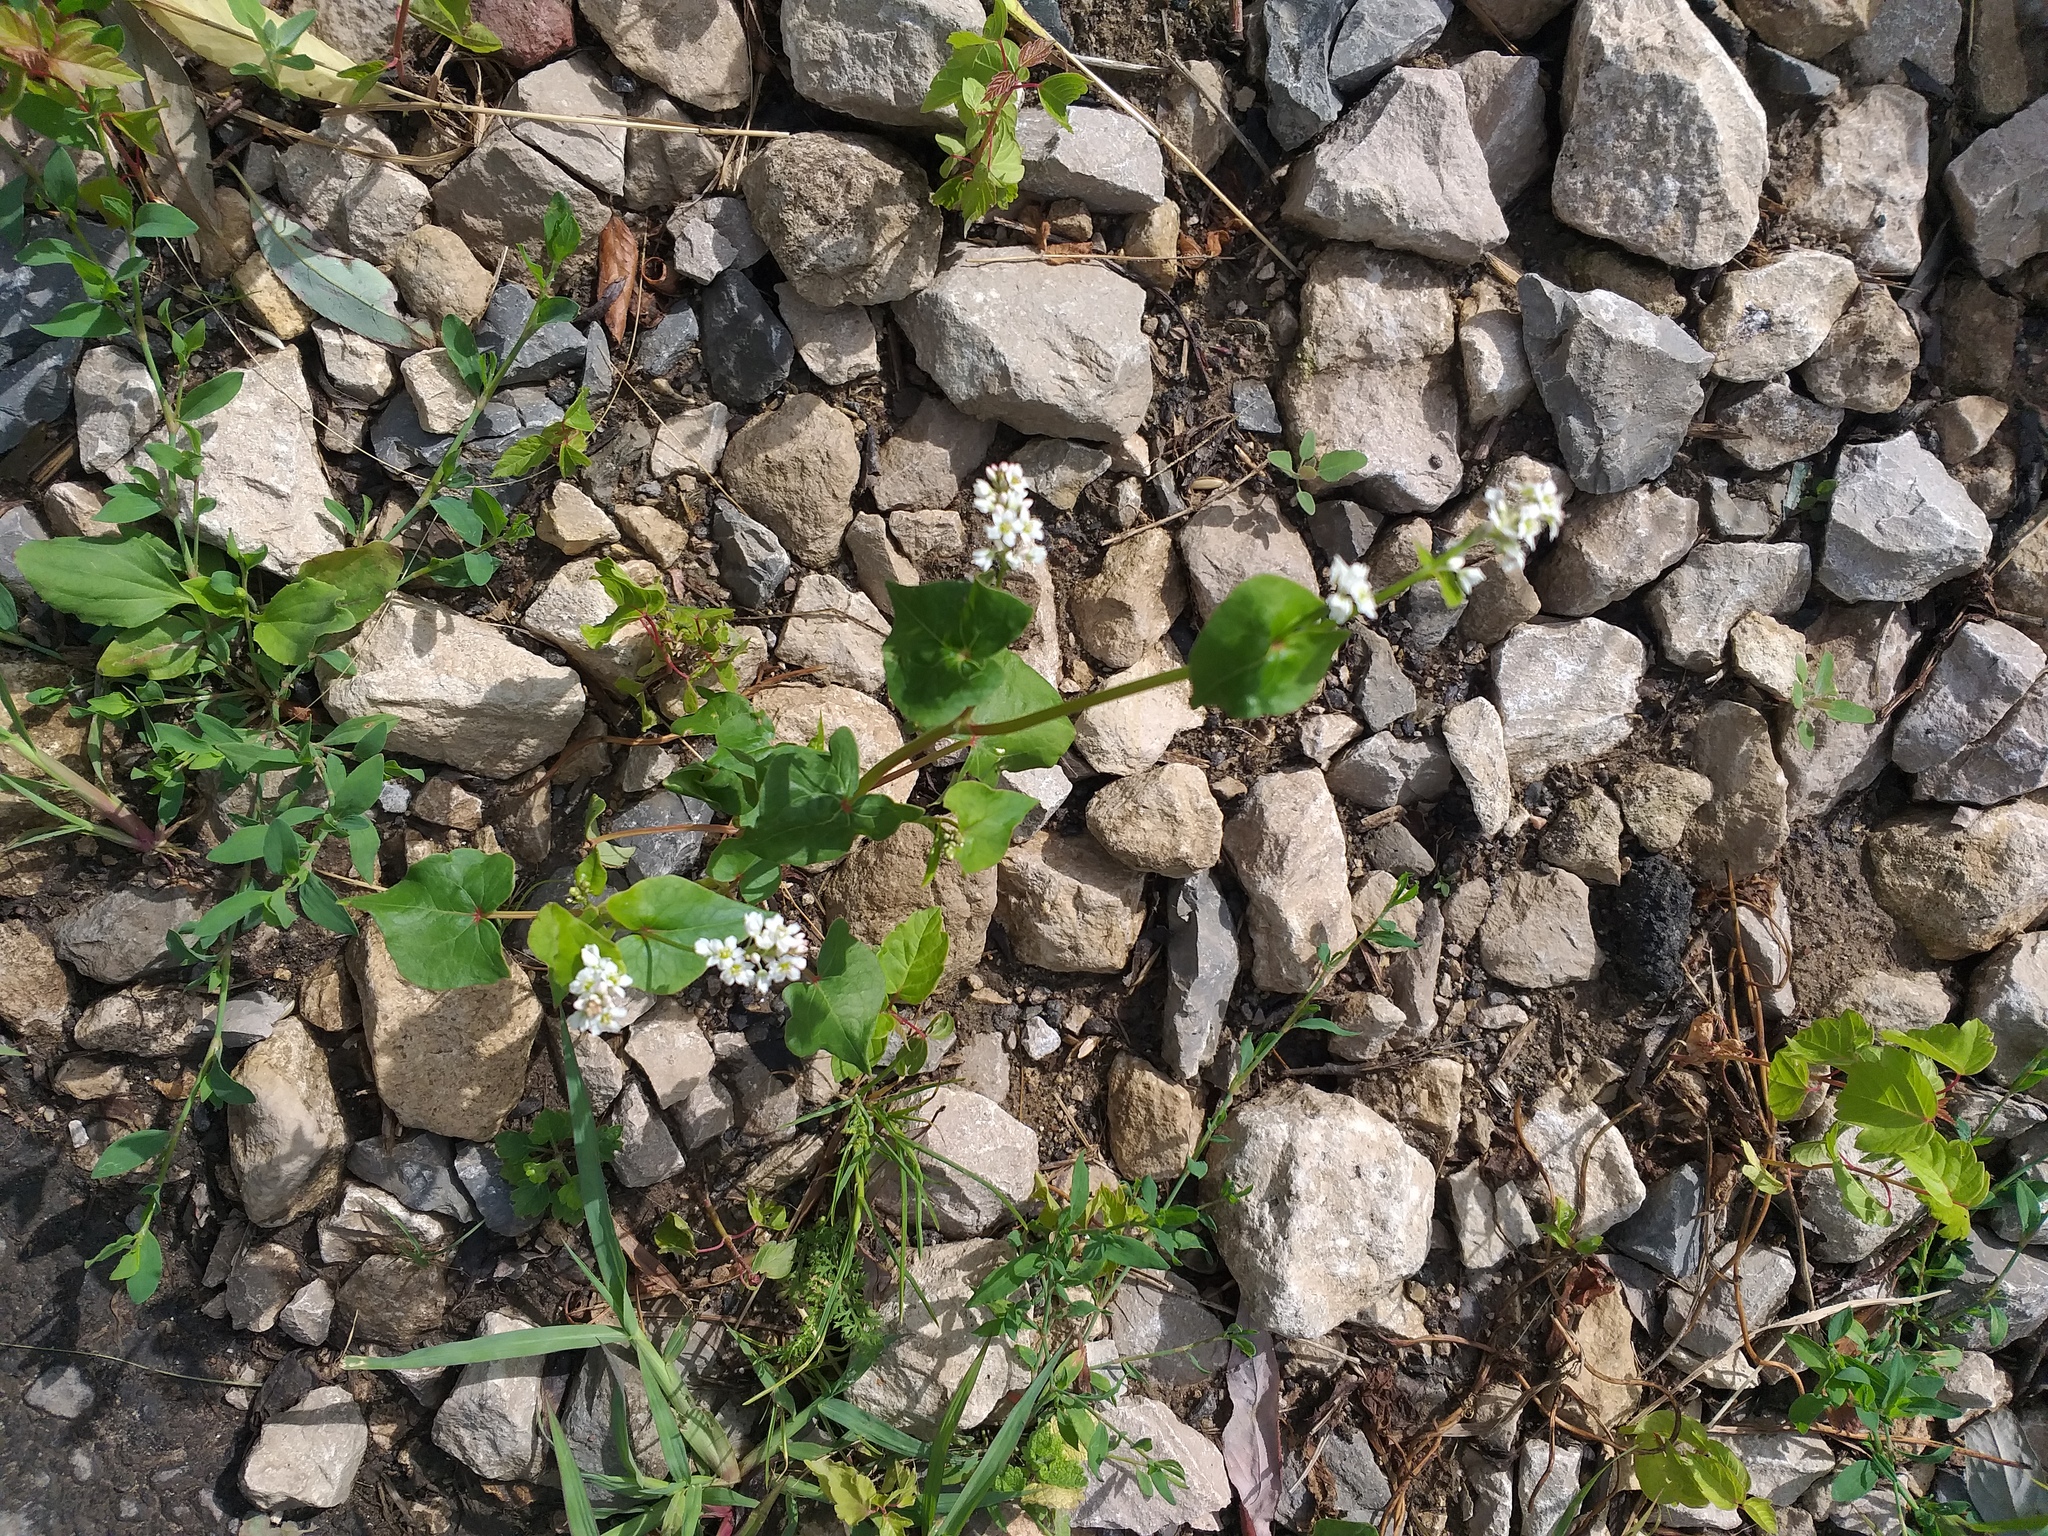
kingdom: Plantae
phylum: Tracheophyta
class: Magnoliopsida
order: Caryophyllales
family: Polygonaceae
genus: Fagopyrum
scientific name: Fagopyrum esculentum
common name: Buckwheat
